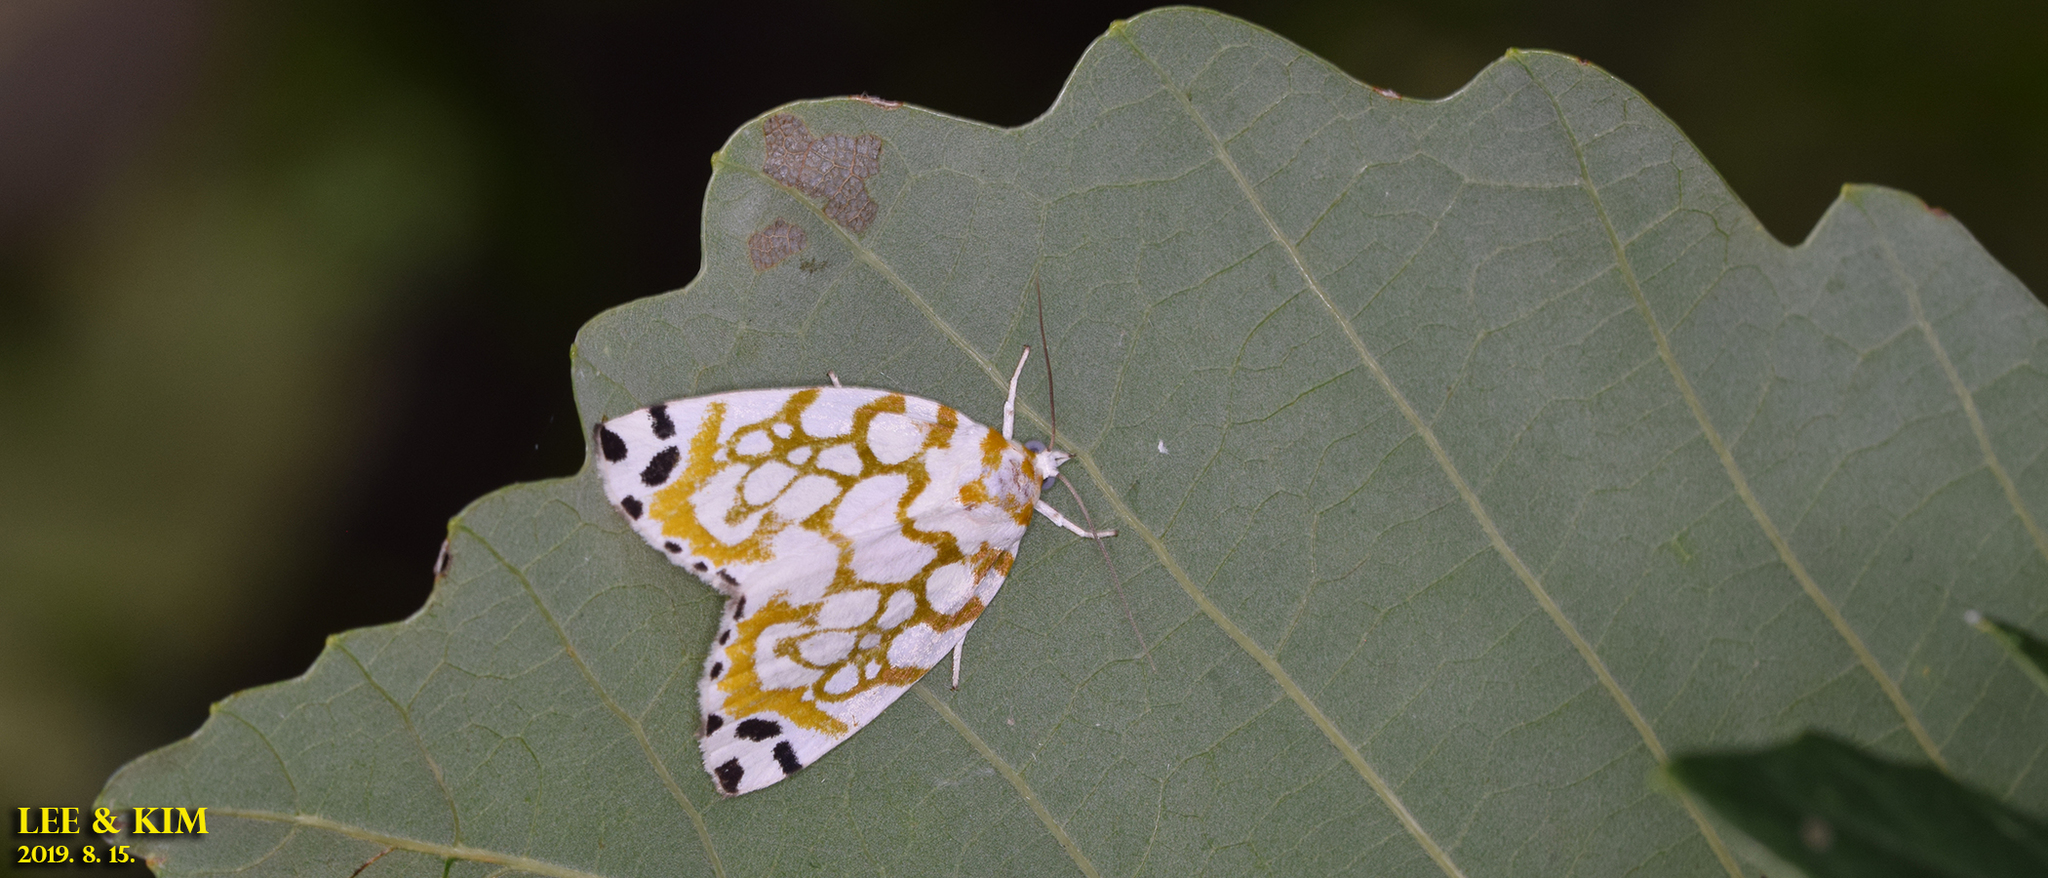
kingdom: Animalia
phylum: Arthropoda
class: Insecta
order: Lepidoptera
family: Nolidae
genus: Sinna
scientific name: Sinna extrema
